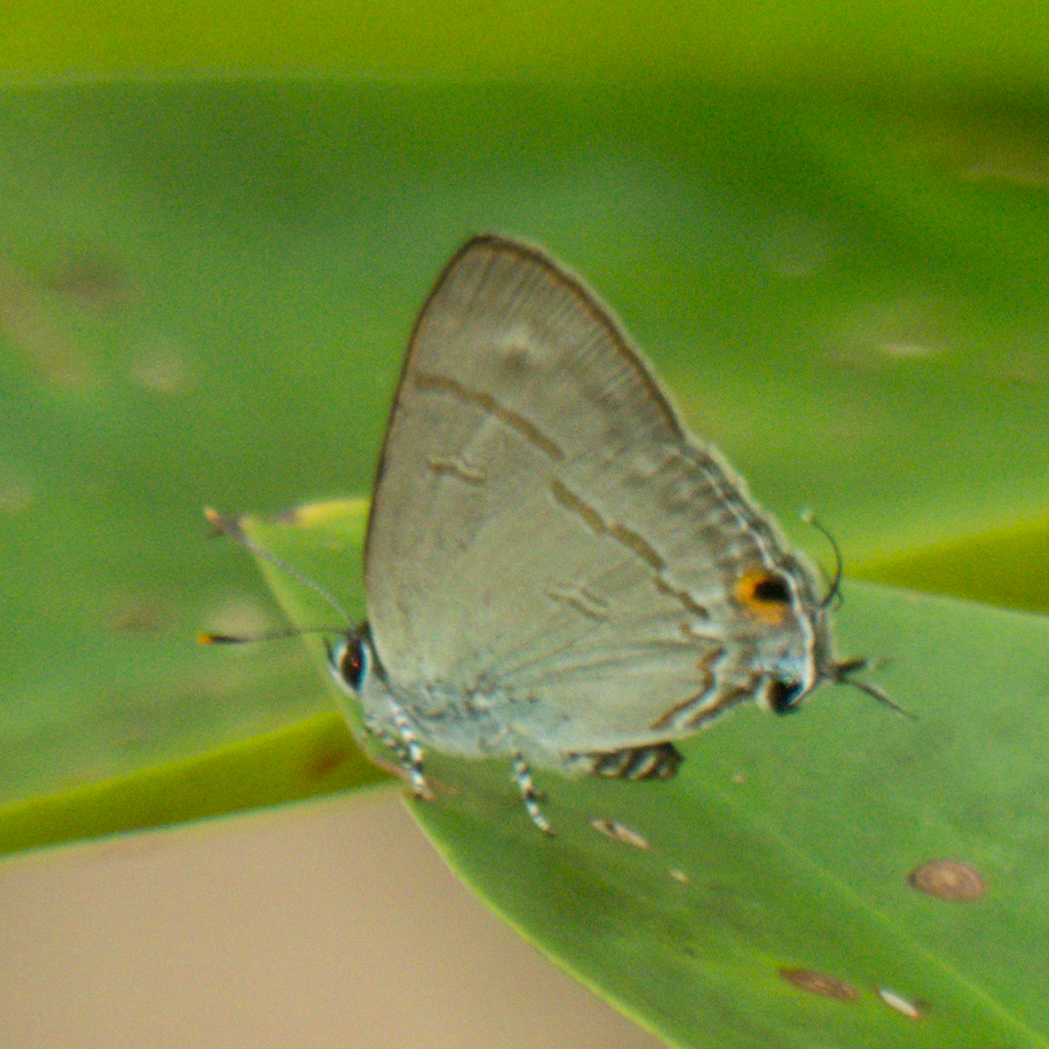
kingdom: Animalia
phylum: Arthropoda
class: Insecta
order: Lepidoptera
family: Lycaenidae
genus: Hypolycaena
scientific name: Hypolycaena erylus
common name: Common tit
